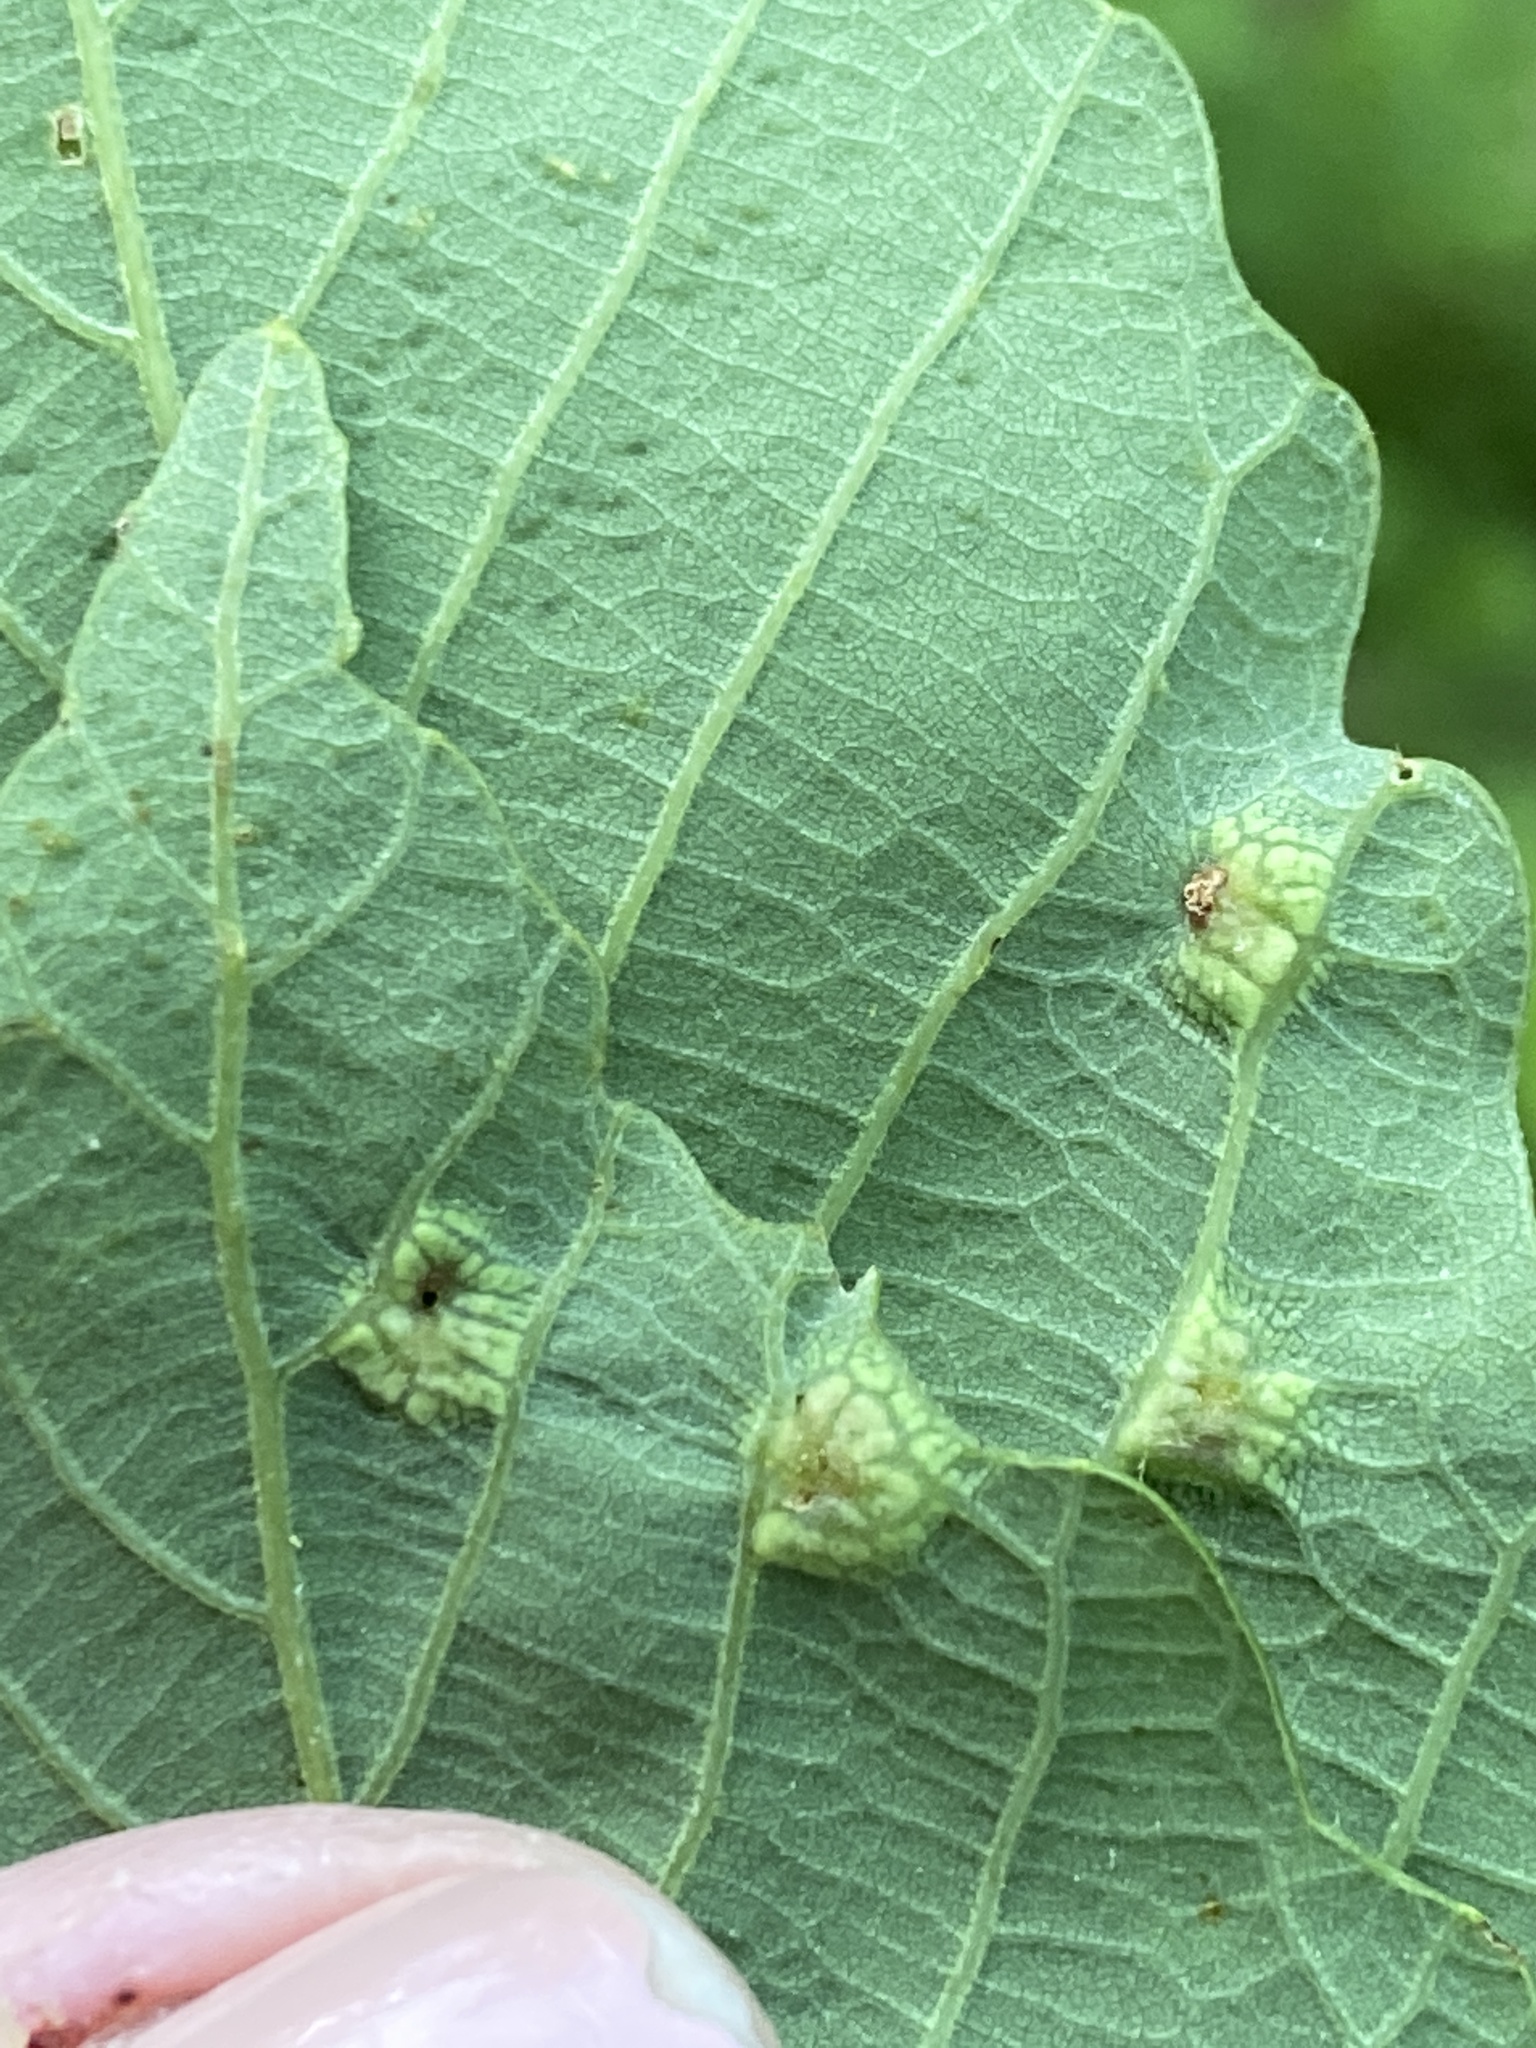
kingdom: Animalia
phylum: Arthropoda
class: Insecta
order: Hymenoptera
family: Cynipidae
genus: Callirhytis
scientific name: Callirhytis
